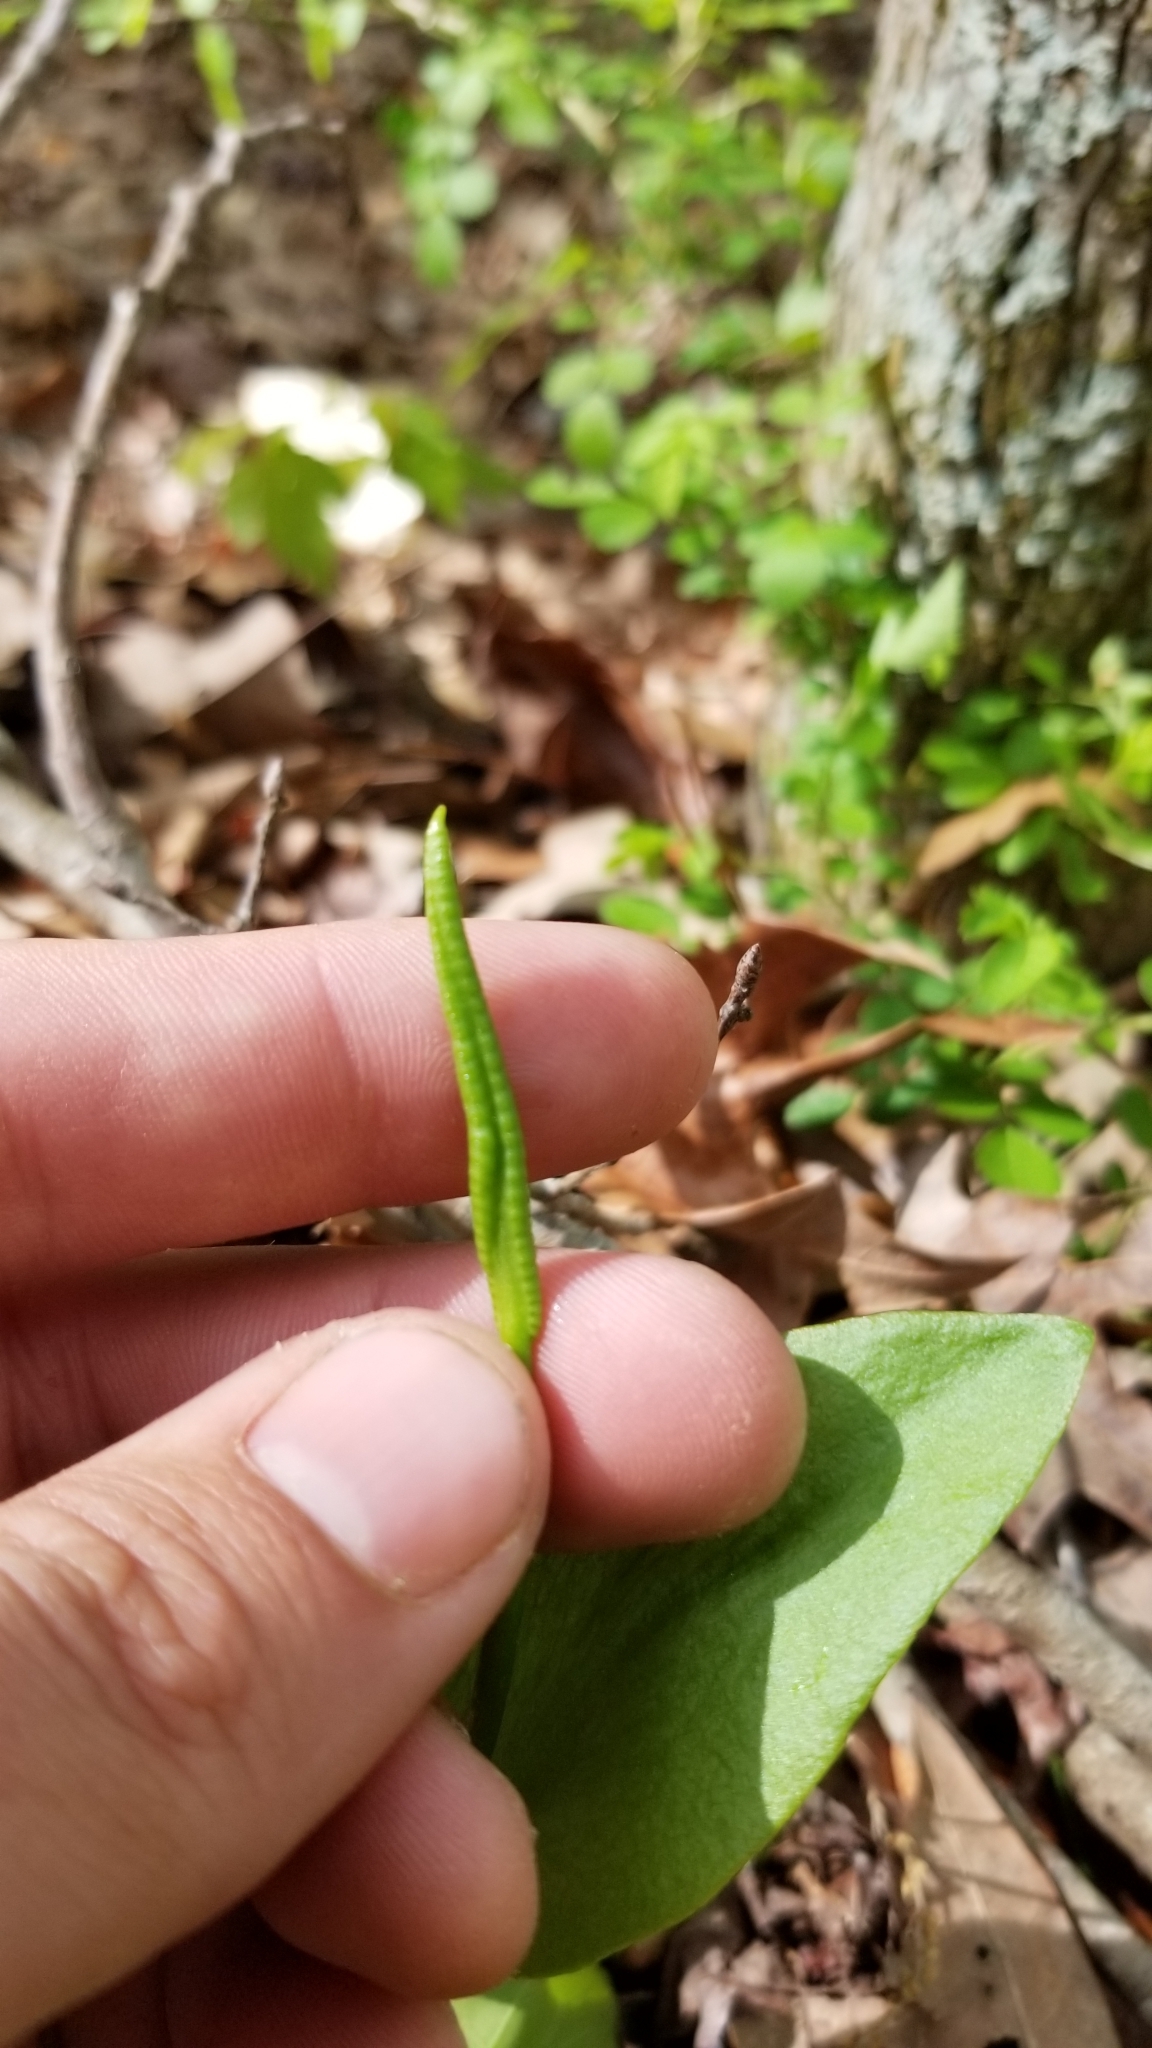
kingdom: Plantae
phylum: Tracheophyta
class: Polypodiopsida
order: Ophioglossales
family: Ophioglossaceae
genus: Ophioglossum
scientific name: Ophioglossum vulgatum
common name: Adder's-tongue
